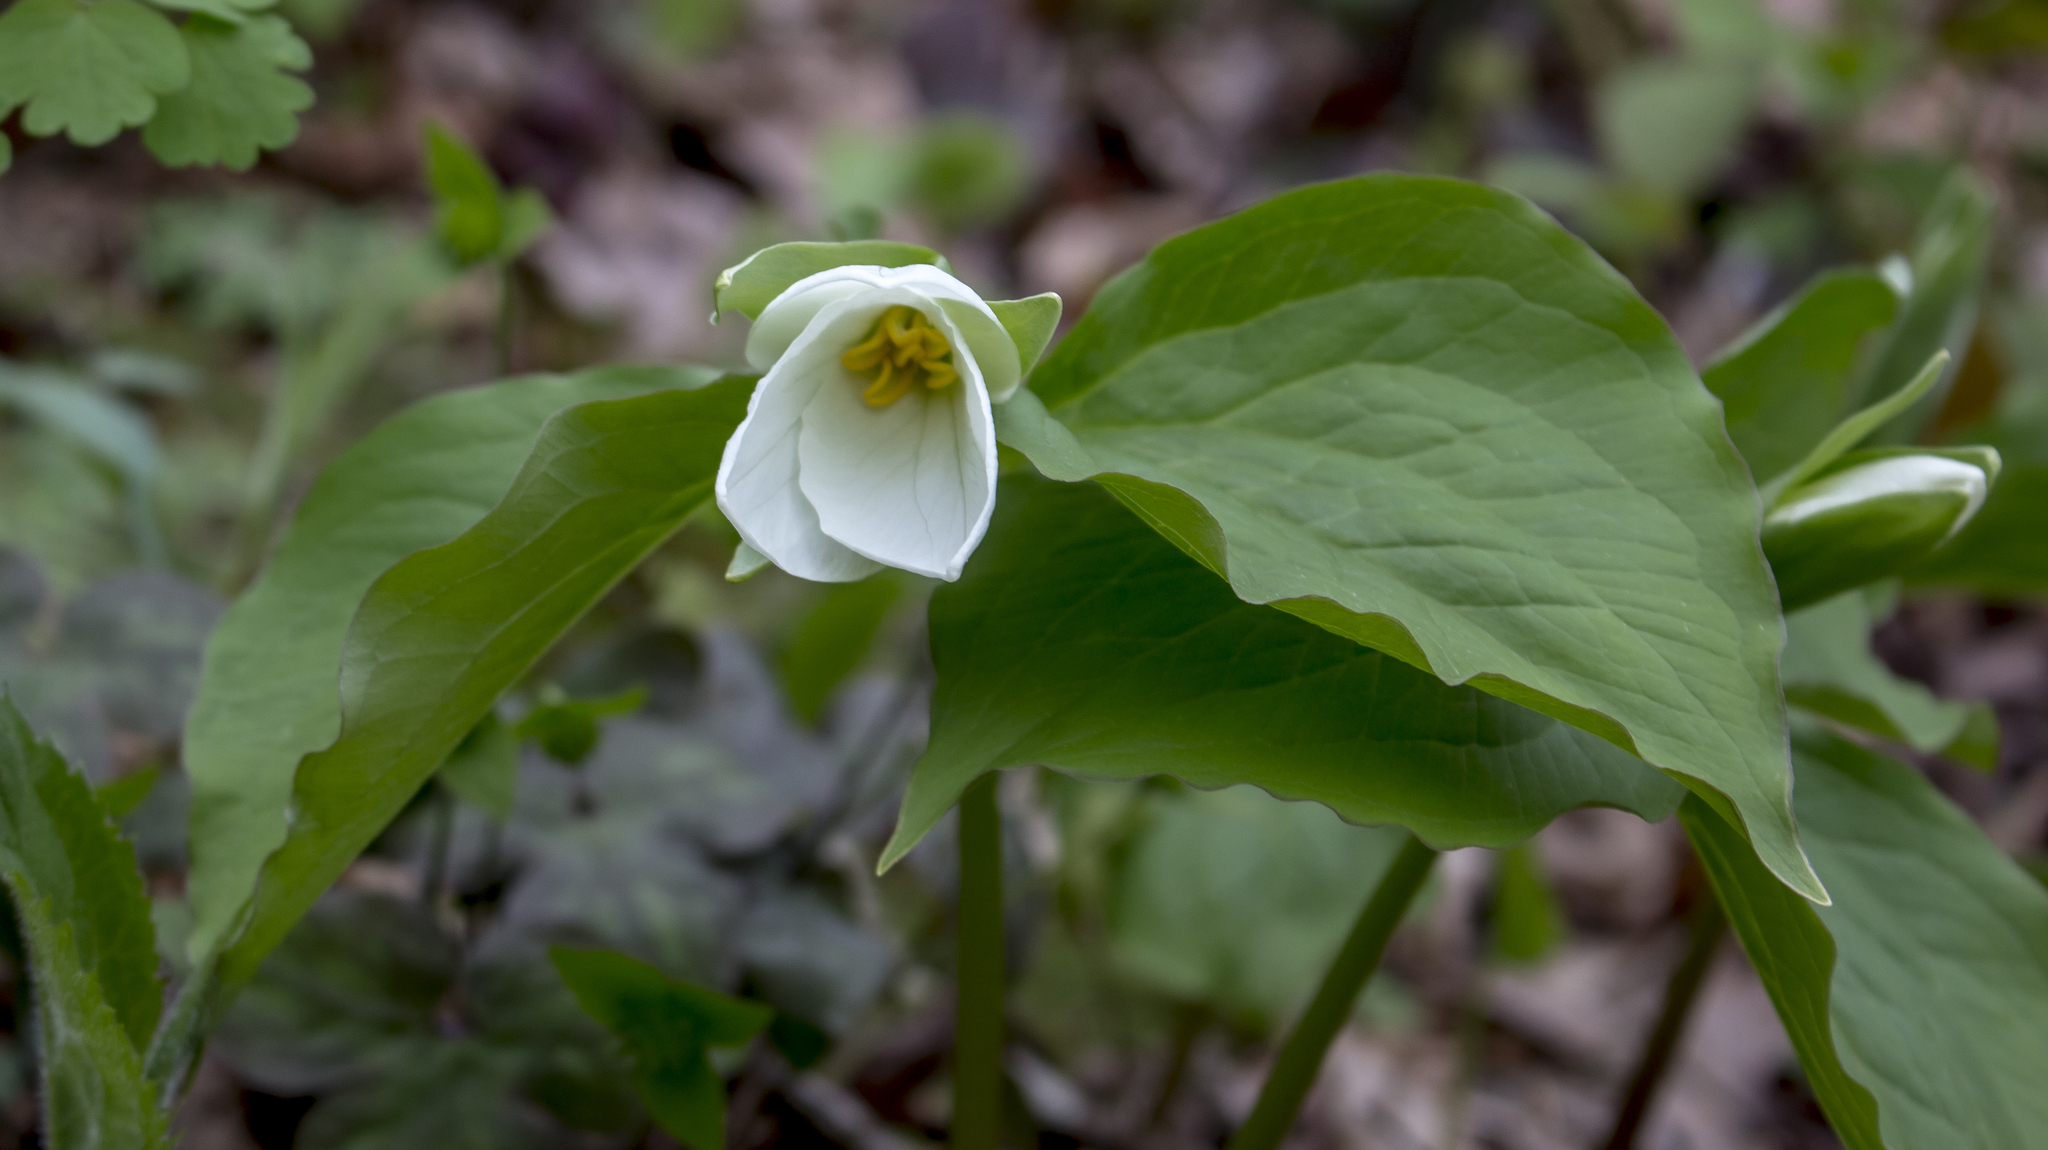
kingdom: Plantae
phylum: Tracheophyta
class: Liliopsida
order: Liliales
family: Melanthiaceae
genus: Trillium
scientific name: Trillium grandiflorum
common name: Great white trillium
